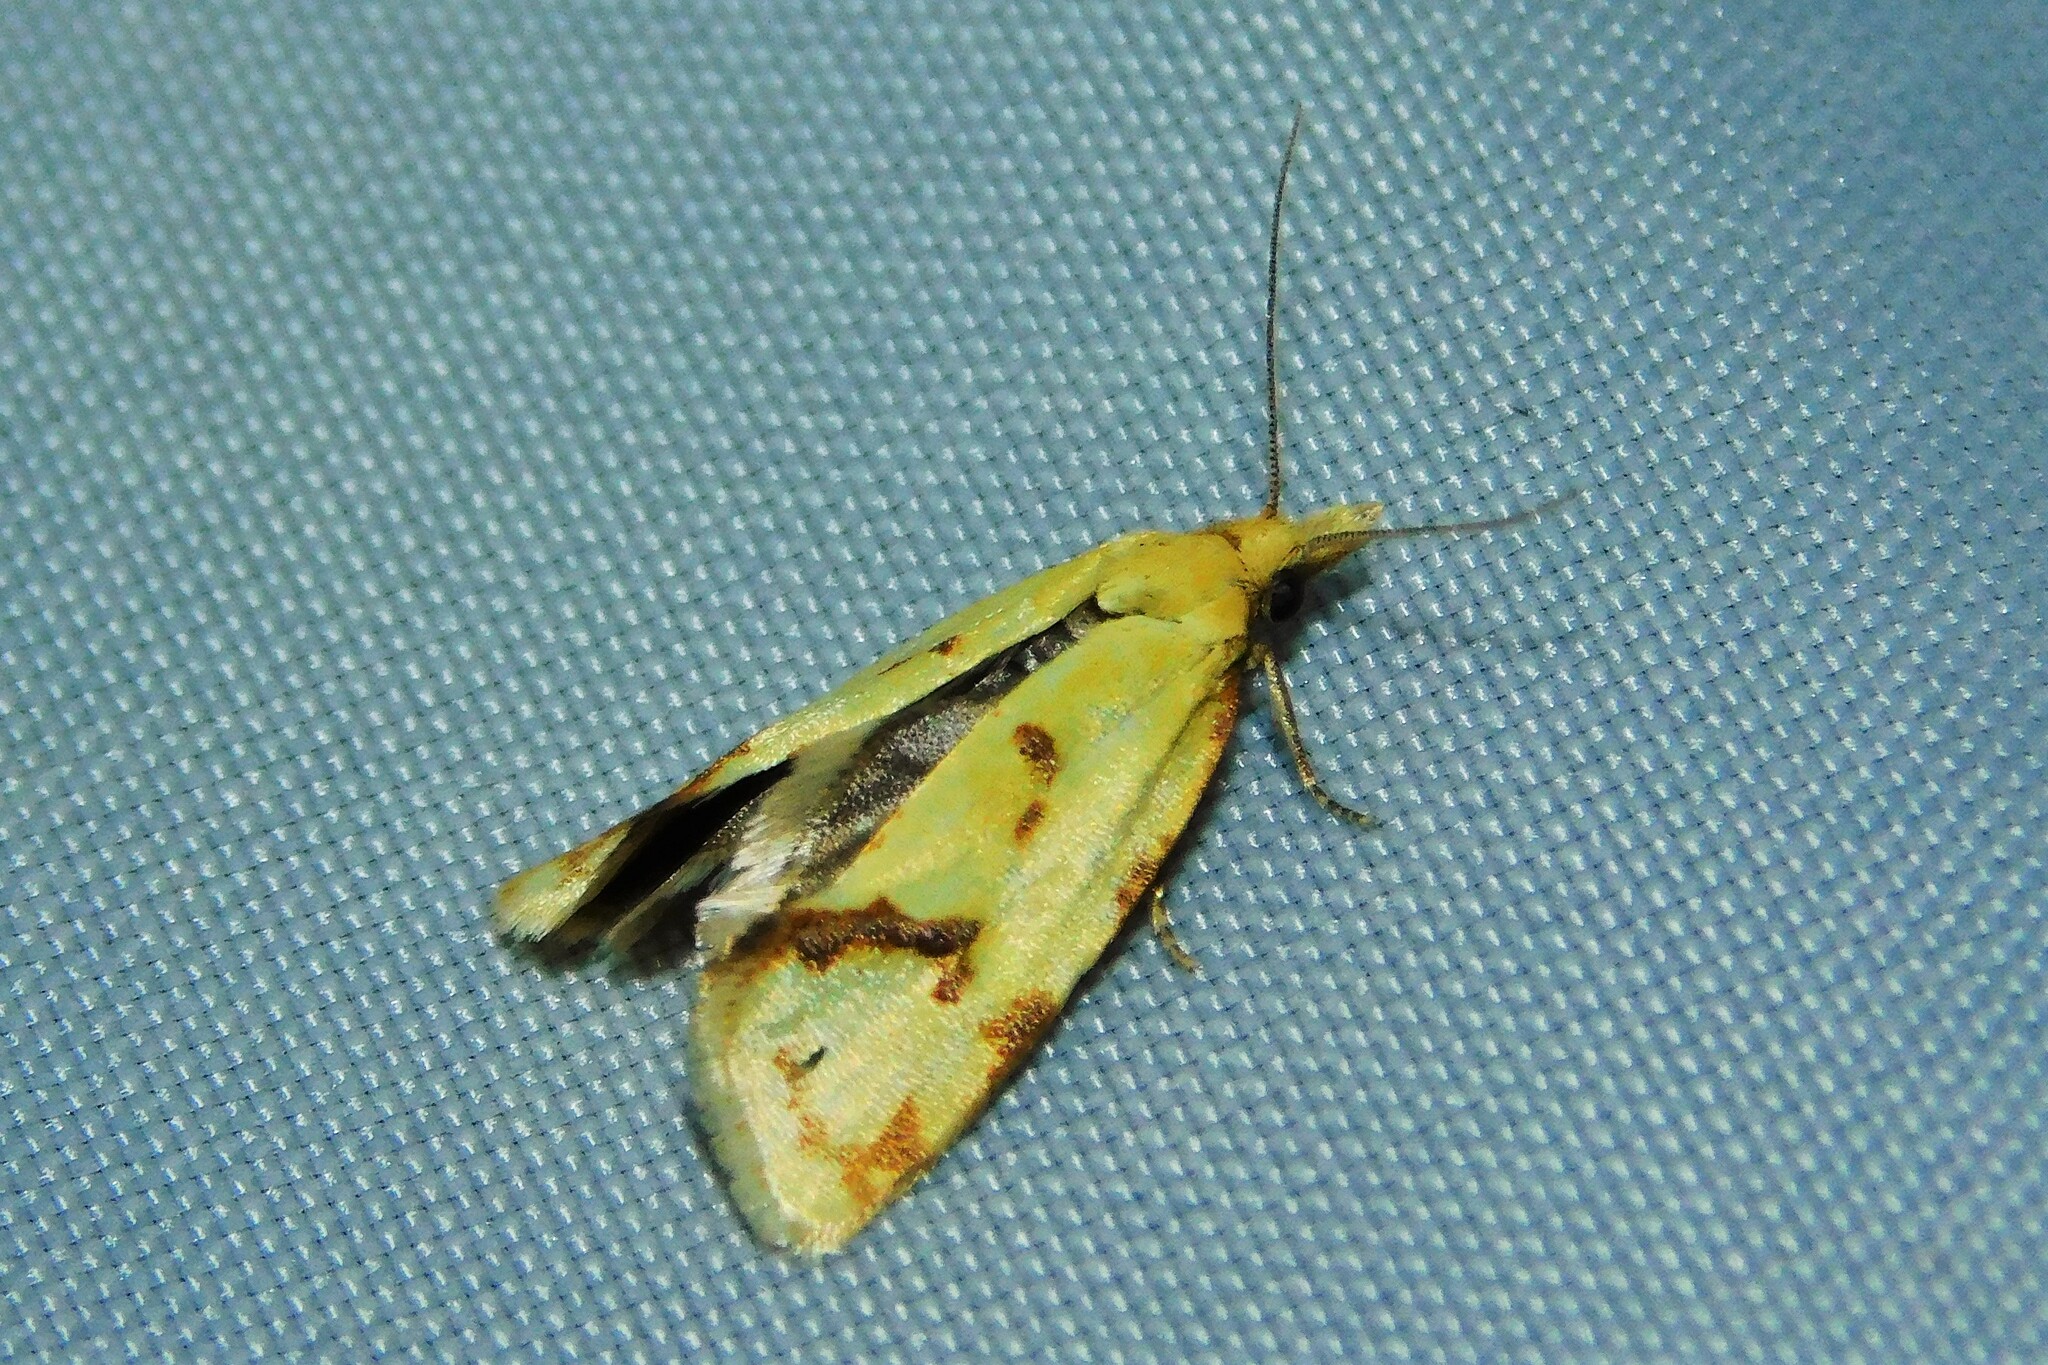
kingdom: Animalia
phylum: Arthropoda
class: Insecta
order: Lepidoptera
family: Tortricidae
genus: Agapeta
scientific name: Agapeta hamana
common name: Common yellow conch
